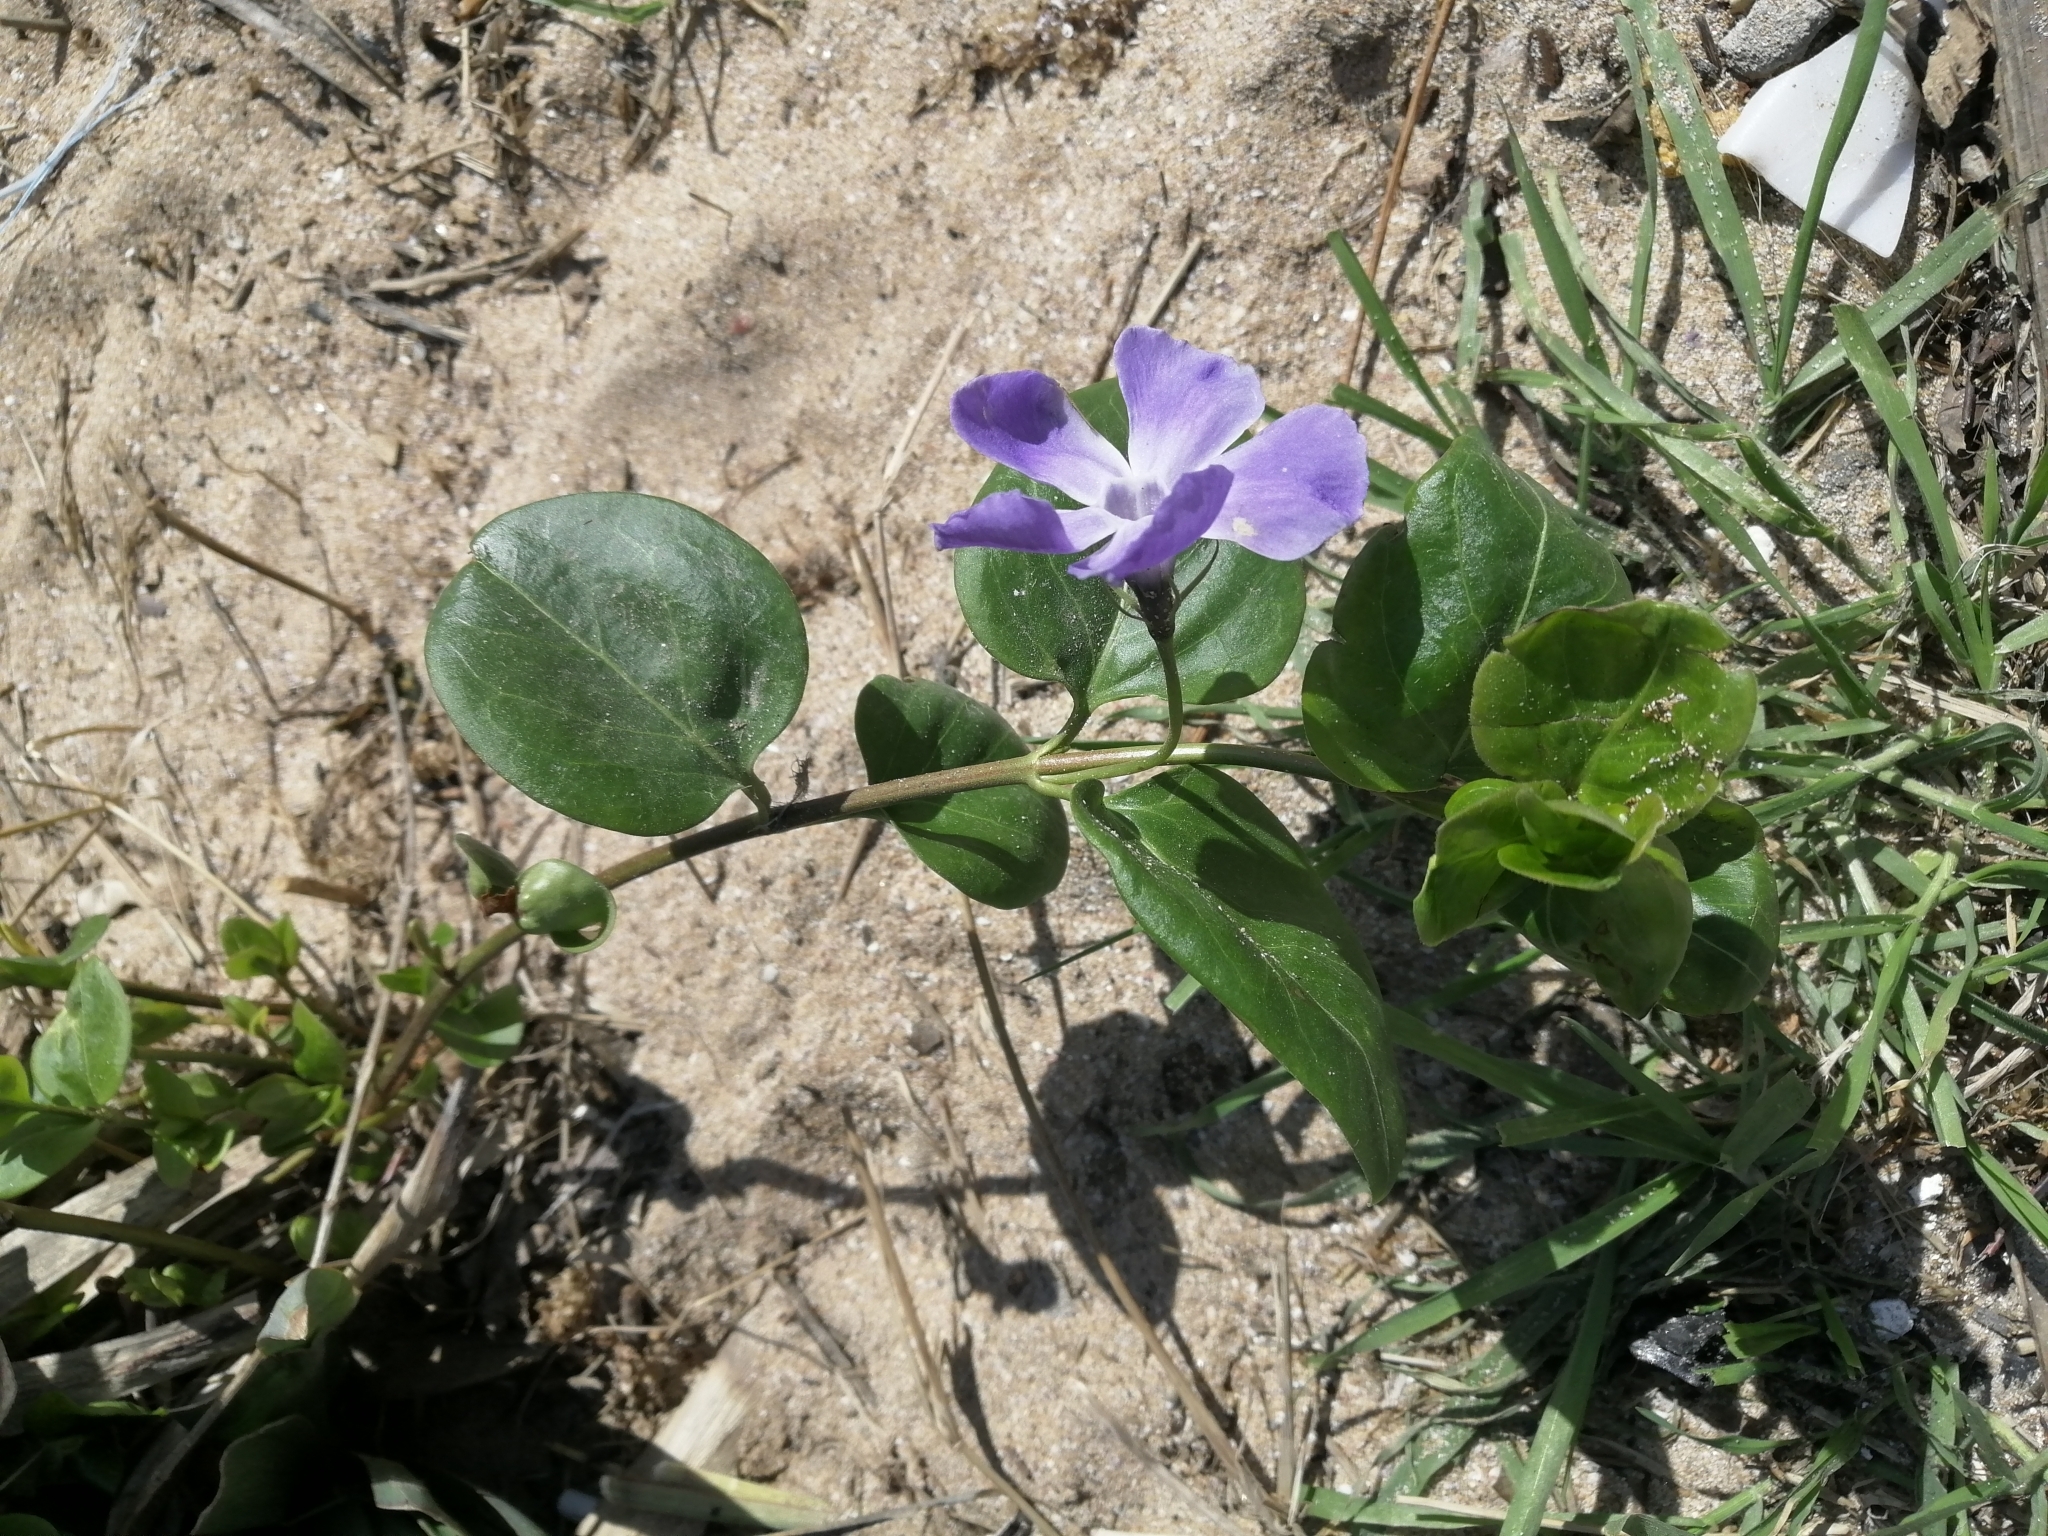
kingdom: Plantae
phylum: Tracheophyta
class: Magnoliopsida
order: Gentianales
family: Apocynaceae
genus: Vinca
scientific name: Vinca major
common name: Greater periwinkle
